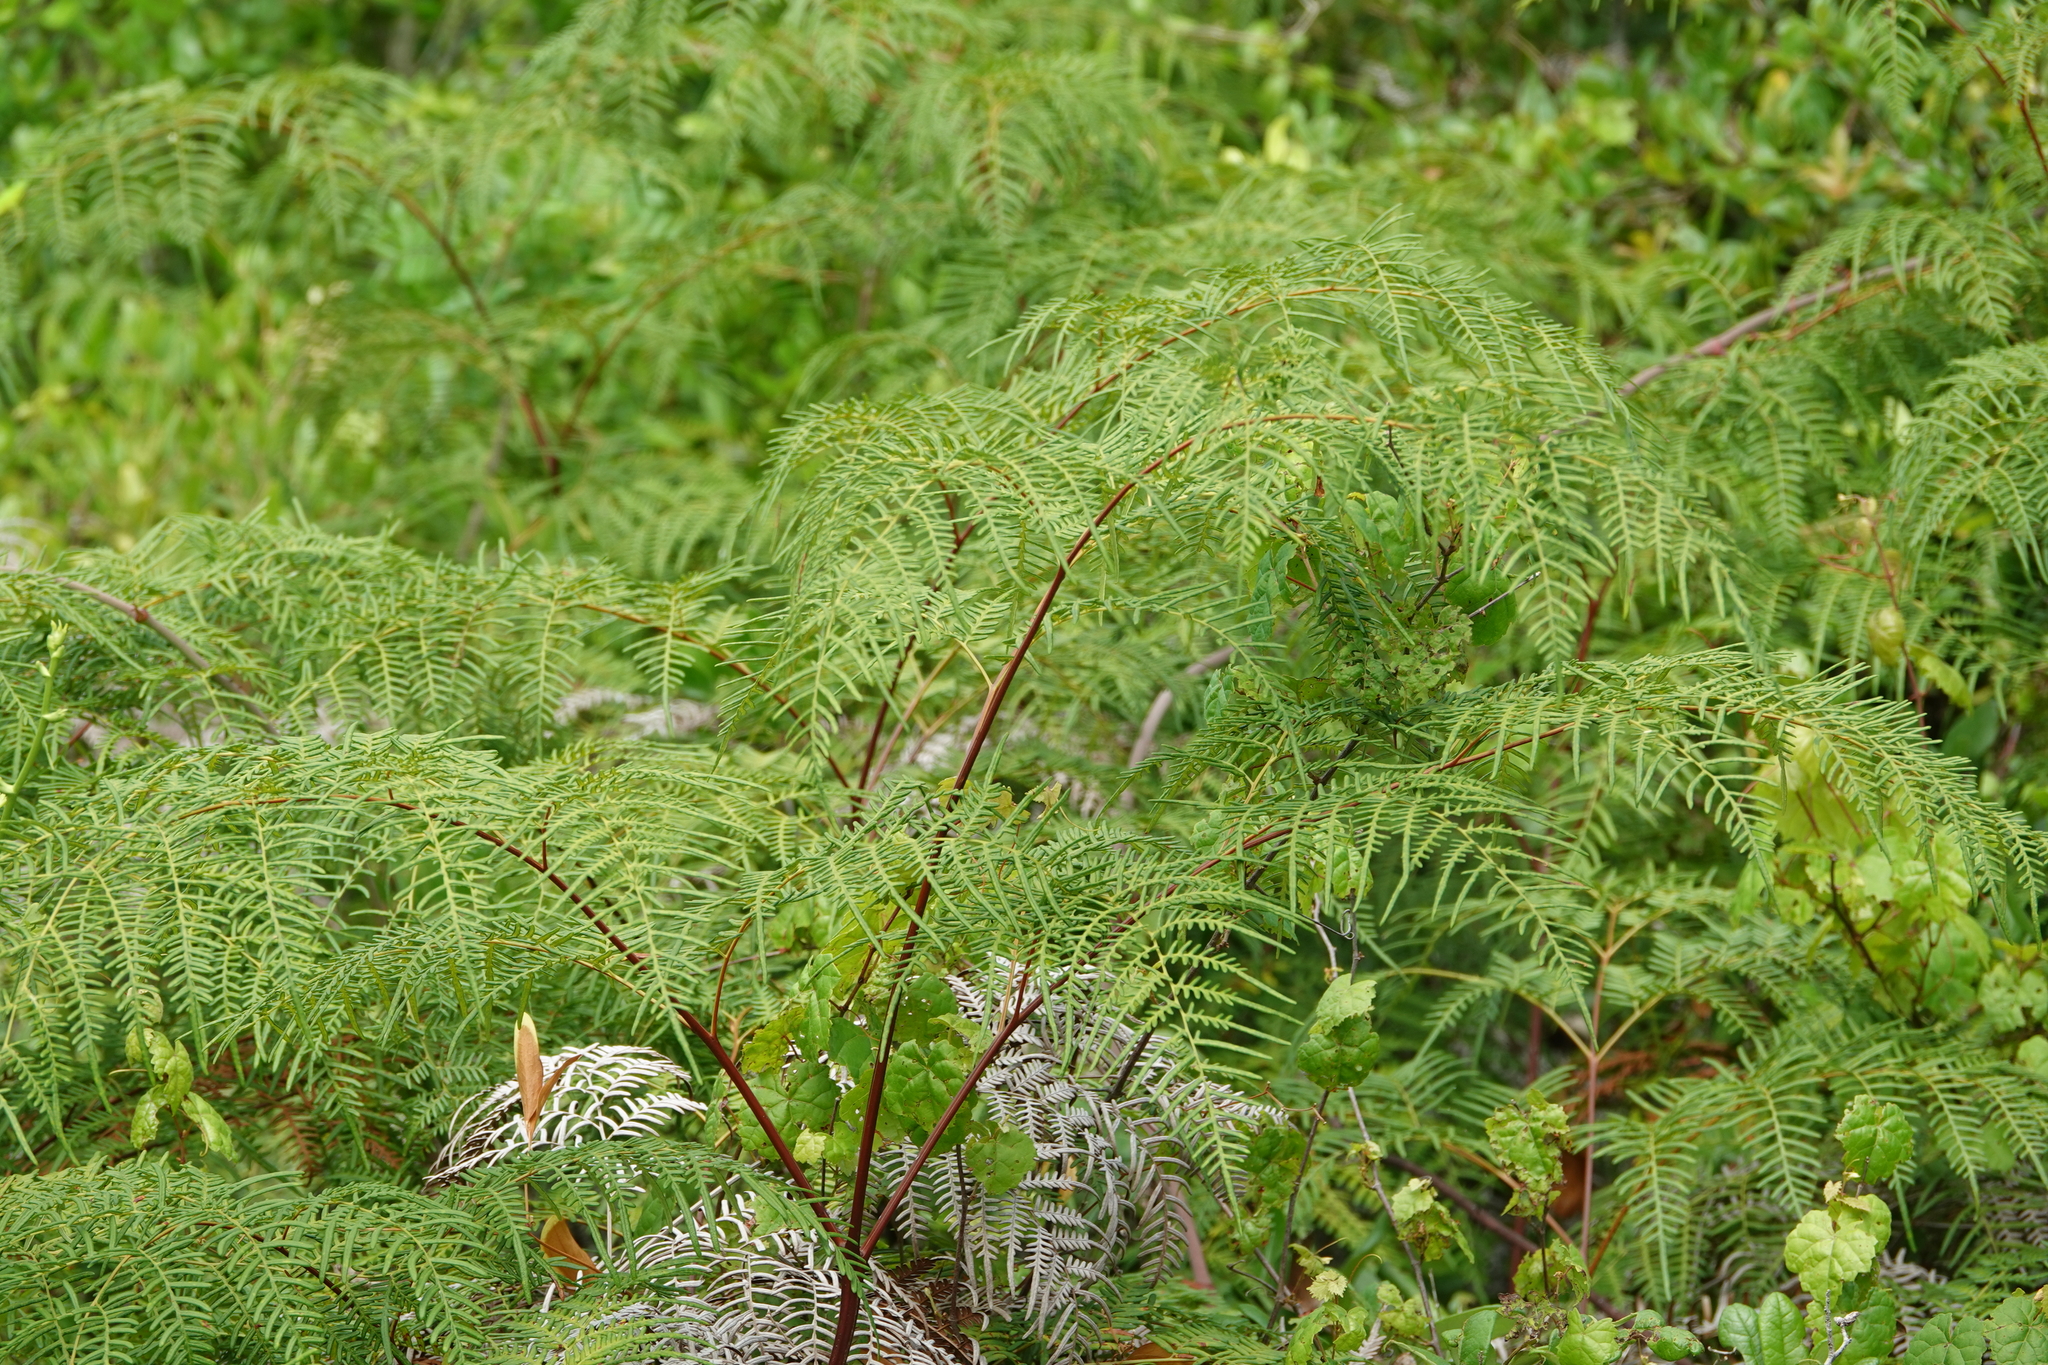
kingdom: Plantae
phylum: Tracheophyta
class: Polypodiopsida
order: Polypodiales
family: Dennstaedtiaceae
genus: Pteridium
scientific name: Pteridium aquilinum
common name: Bracken
